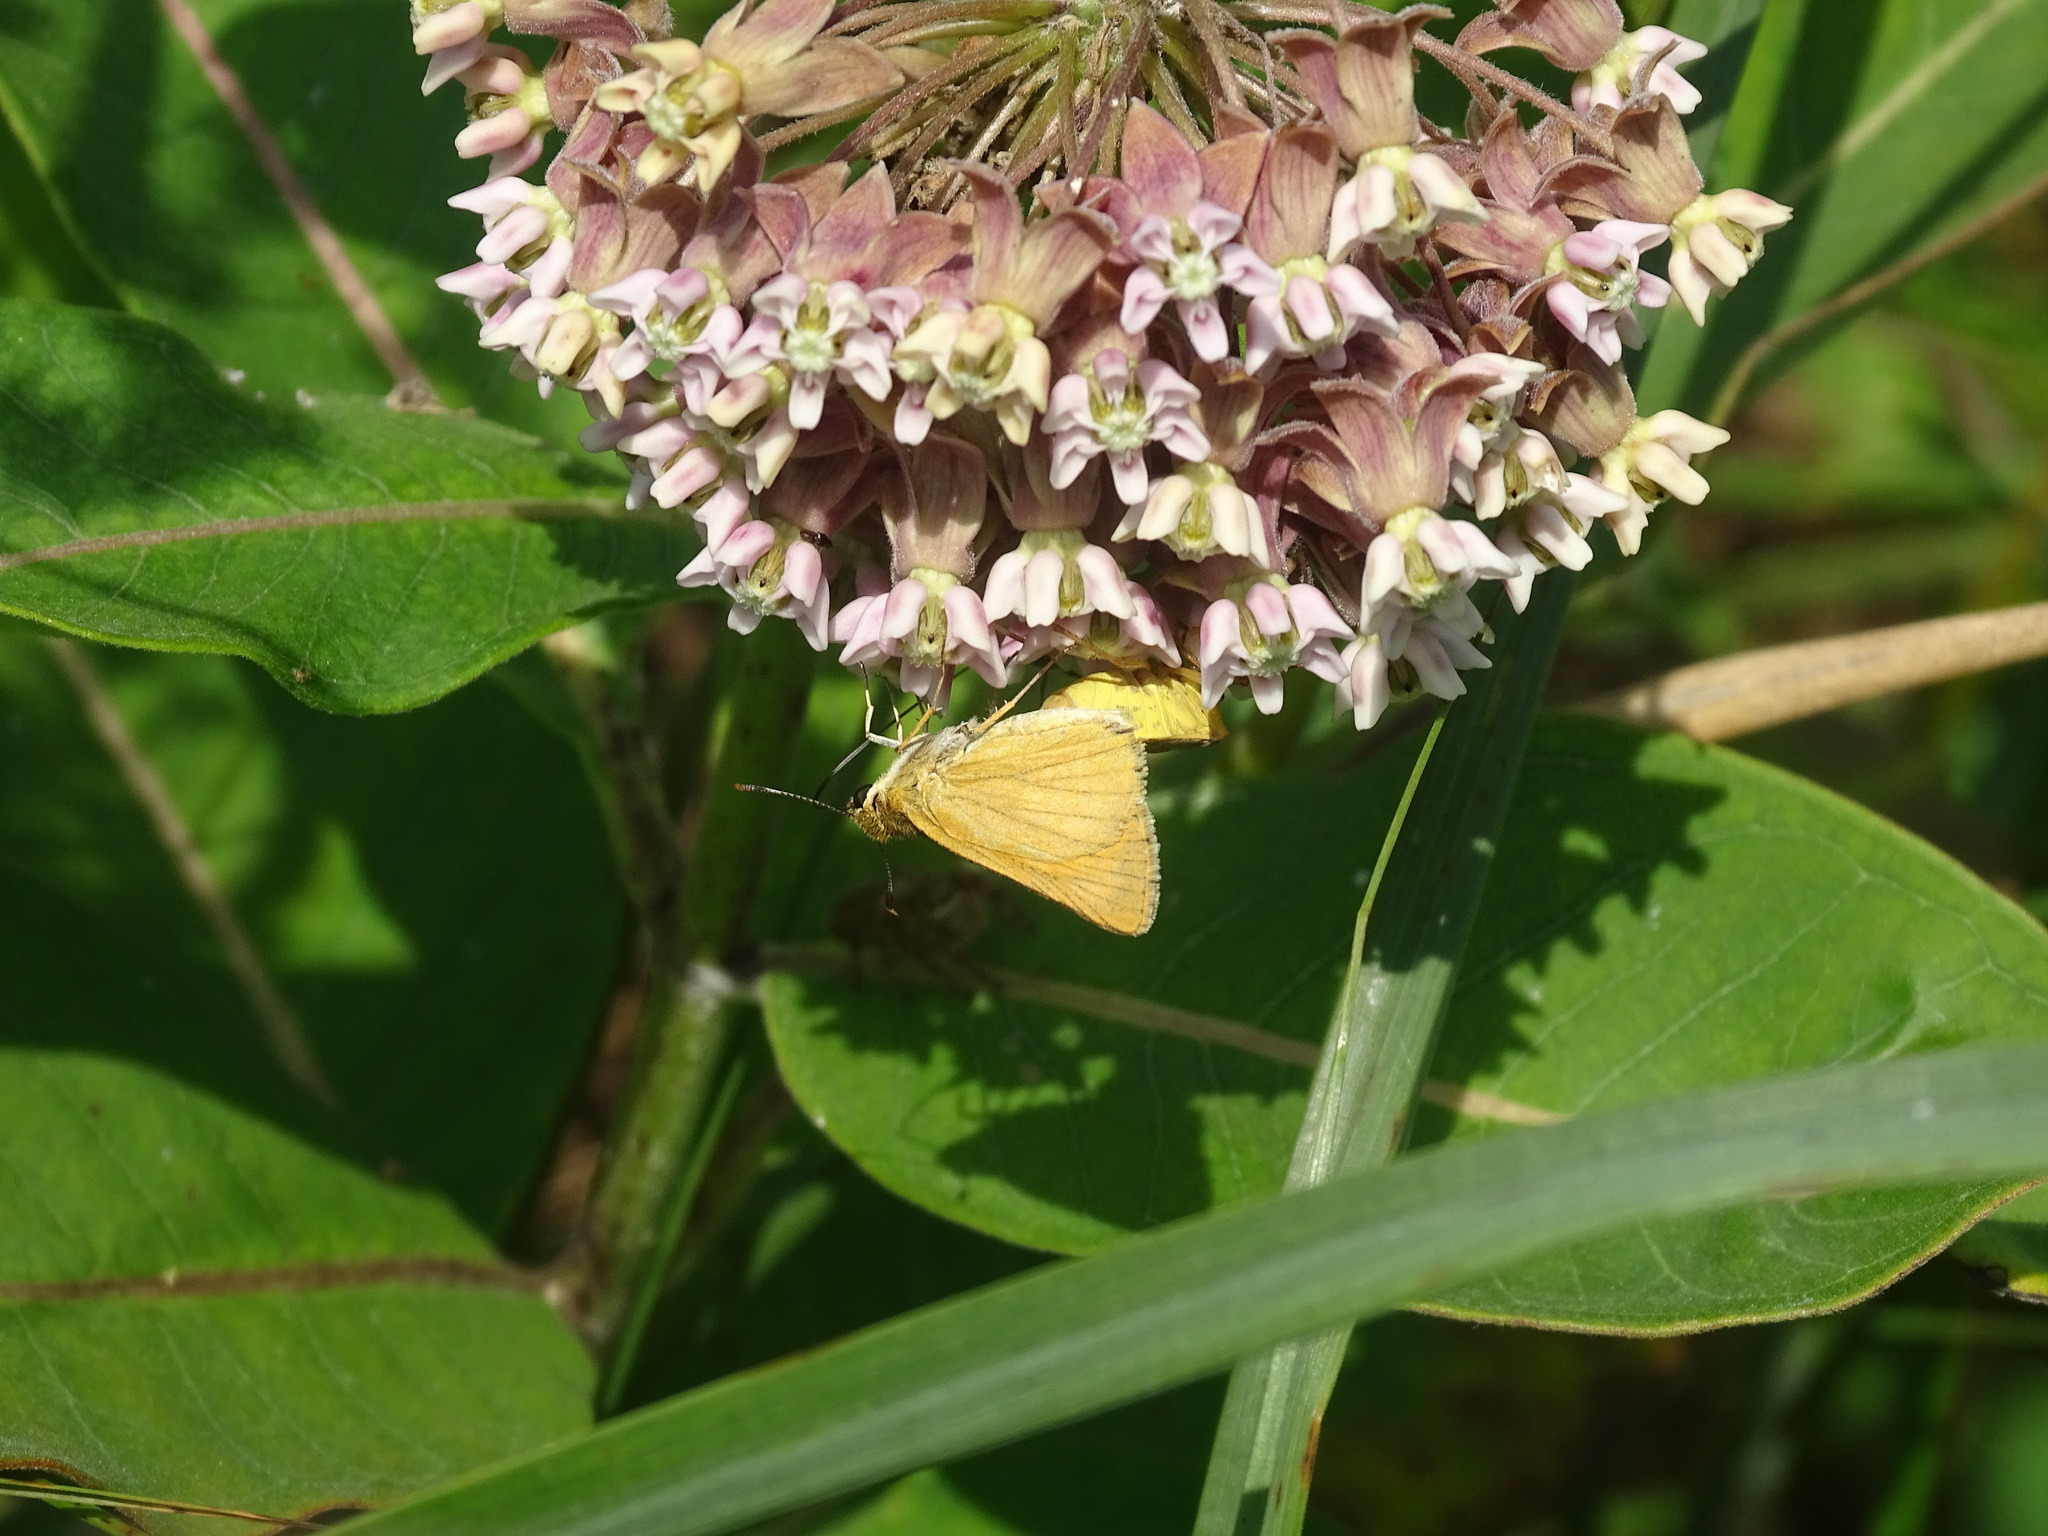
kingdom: Animalia
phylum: Arthropoda
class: Insecta
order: Lepidoptera
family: Hesperiidae
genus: Atrytone
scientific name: Atrytone delaware
